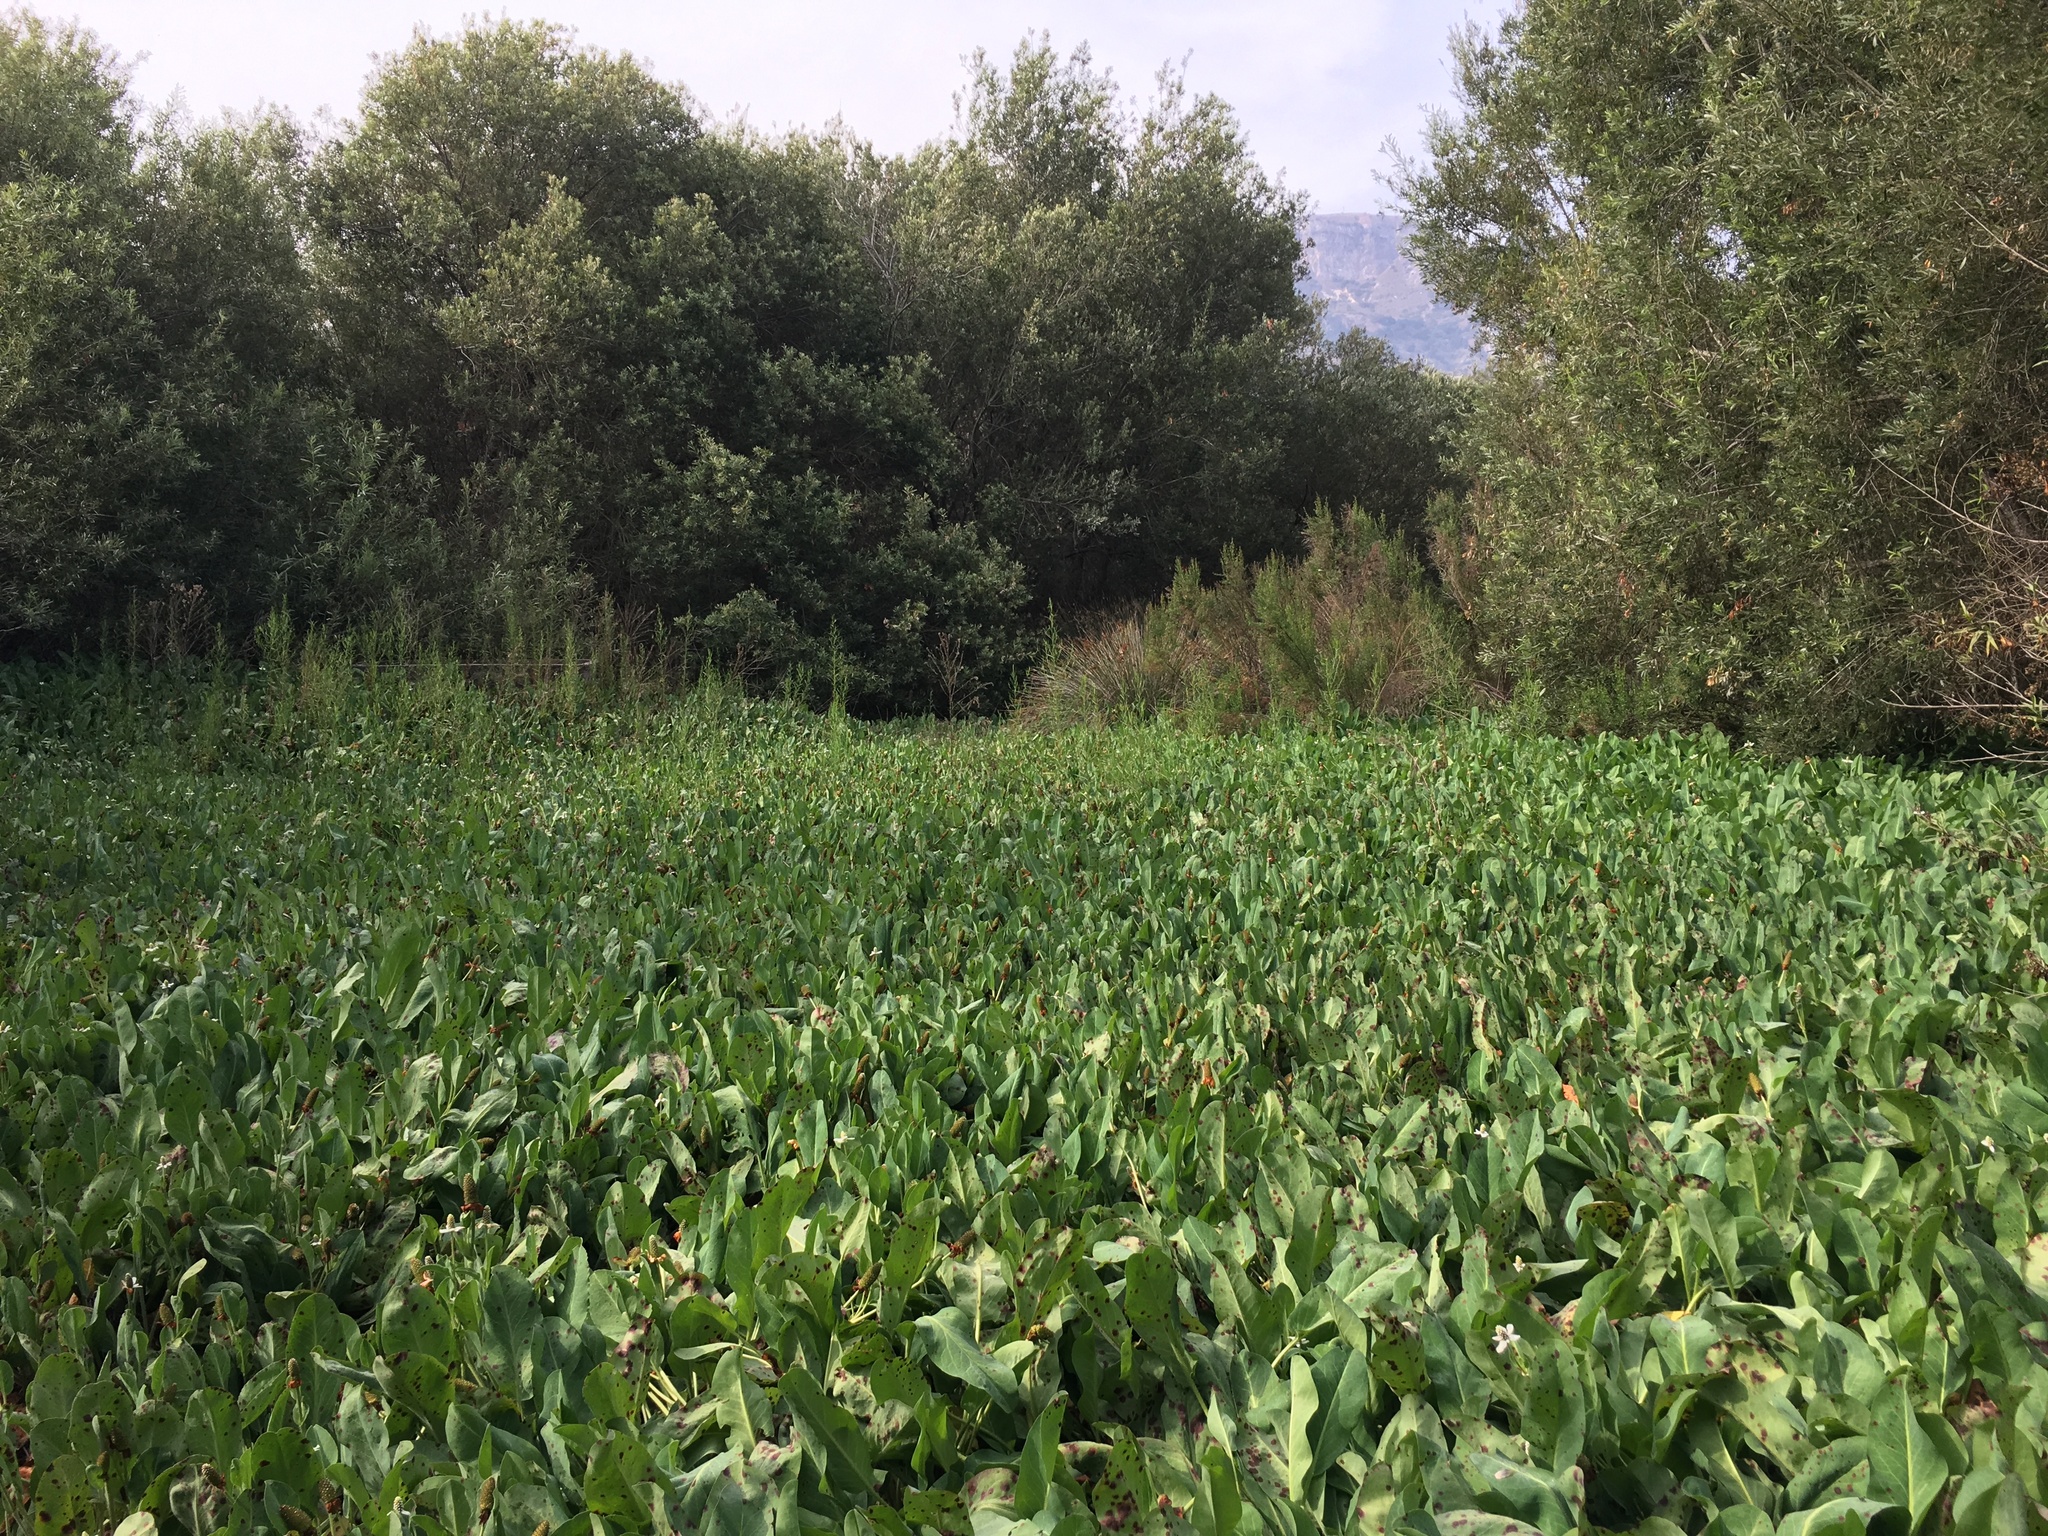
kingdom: Plantae
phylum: Tracheophyta
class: Magnoliopsida
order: Piperales
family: Saururaceae
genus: Anemopsis
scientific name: Anemopsis californica
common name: Apache-beads
